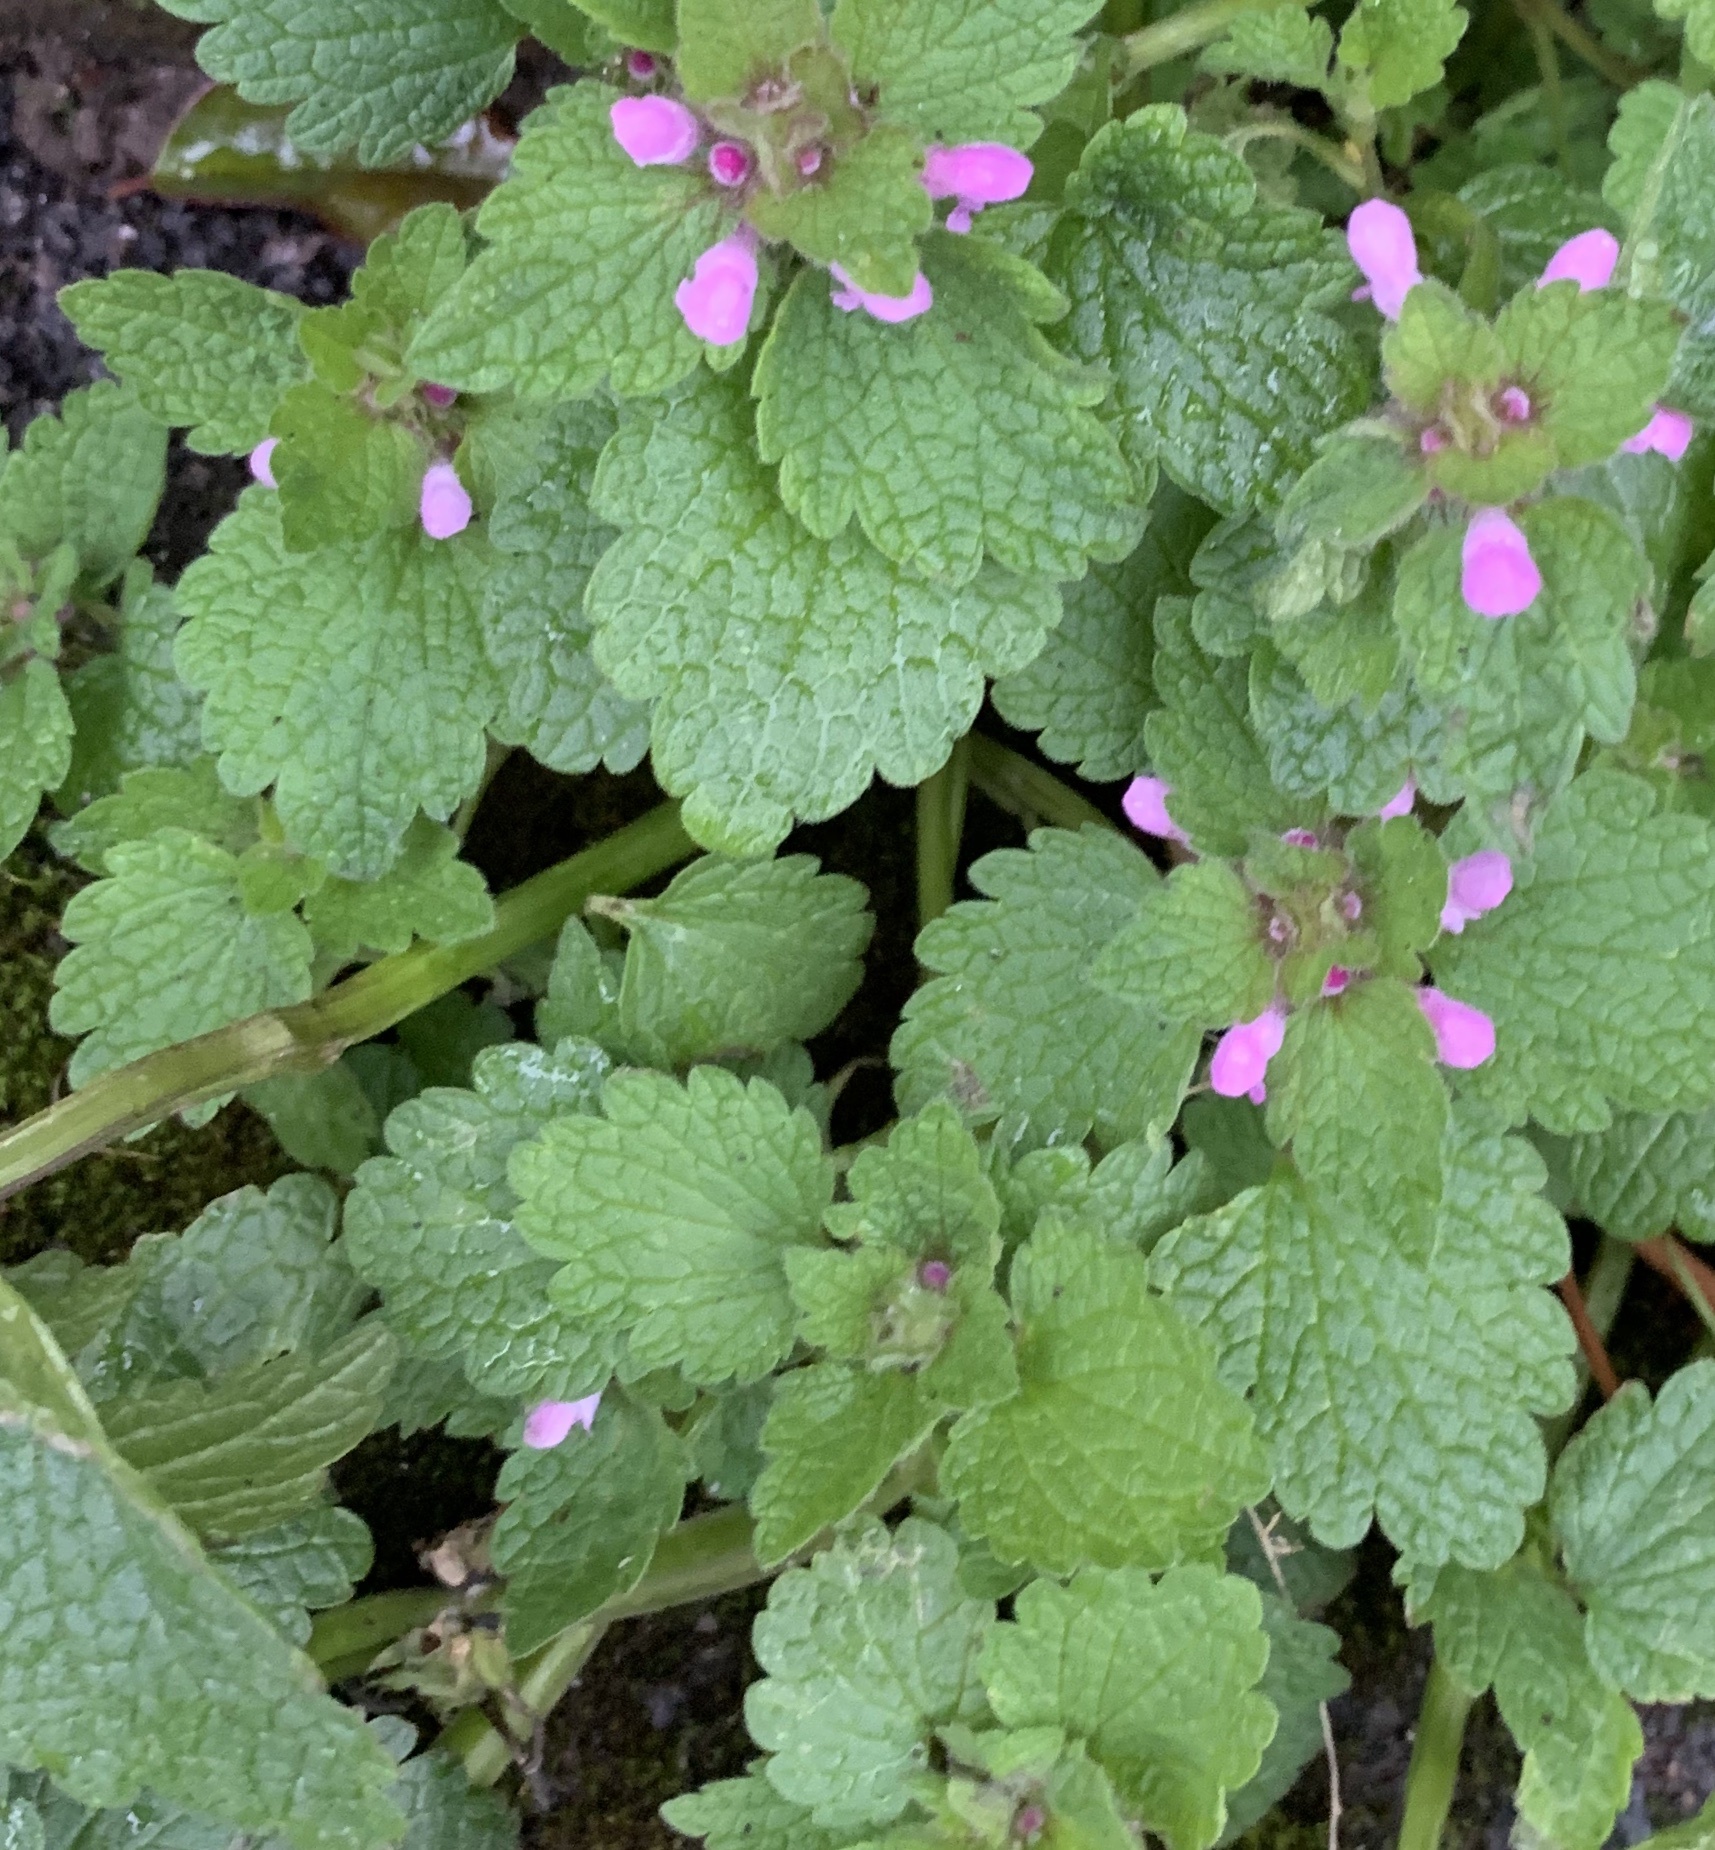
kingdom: Plantae
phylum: Tracheophyta
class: Magnoliopsida
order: Lamiales
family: Lamiaceae
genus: Lamium
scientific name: Lamium purpureum
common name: Red dead-nettle
